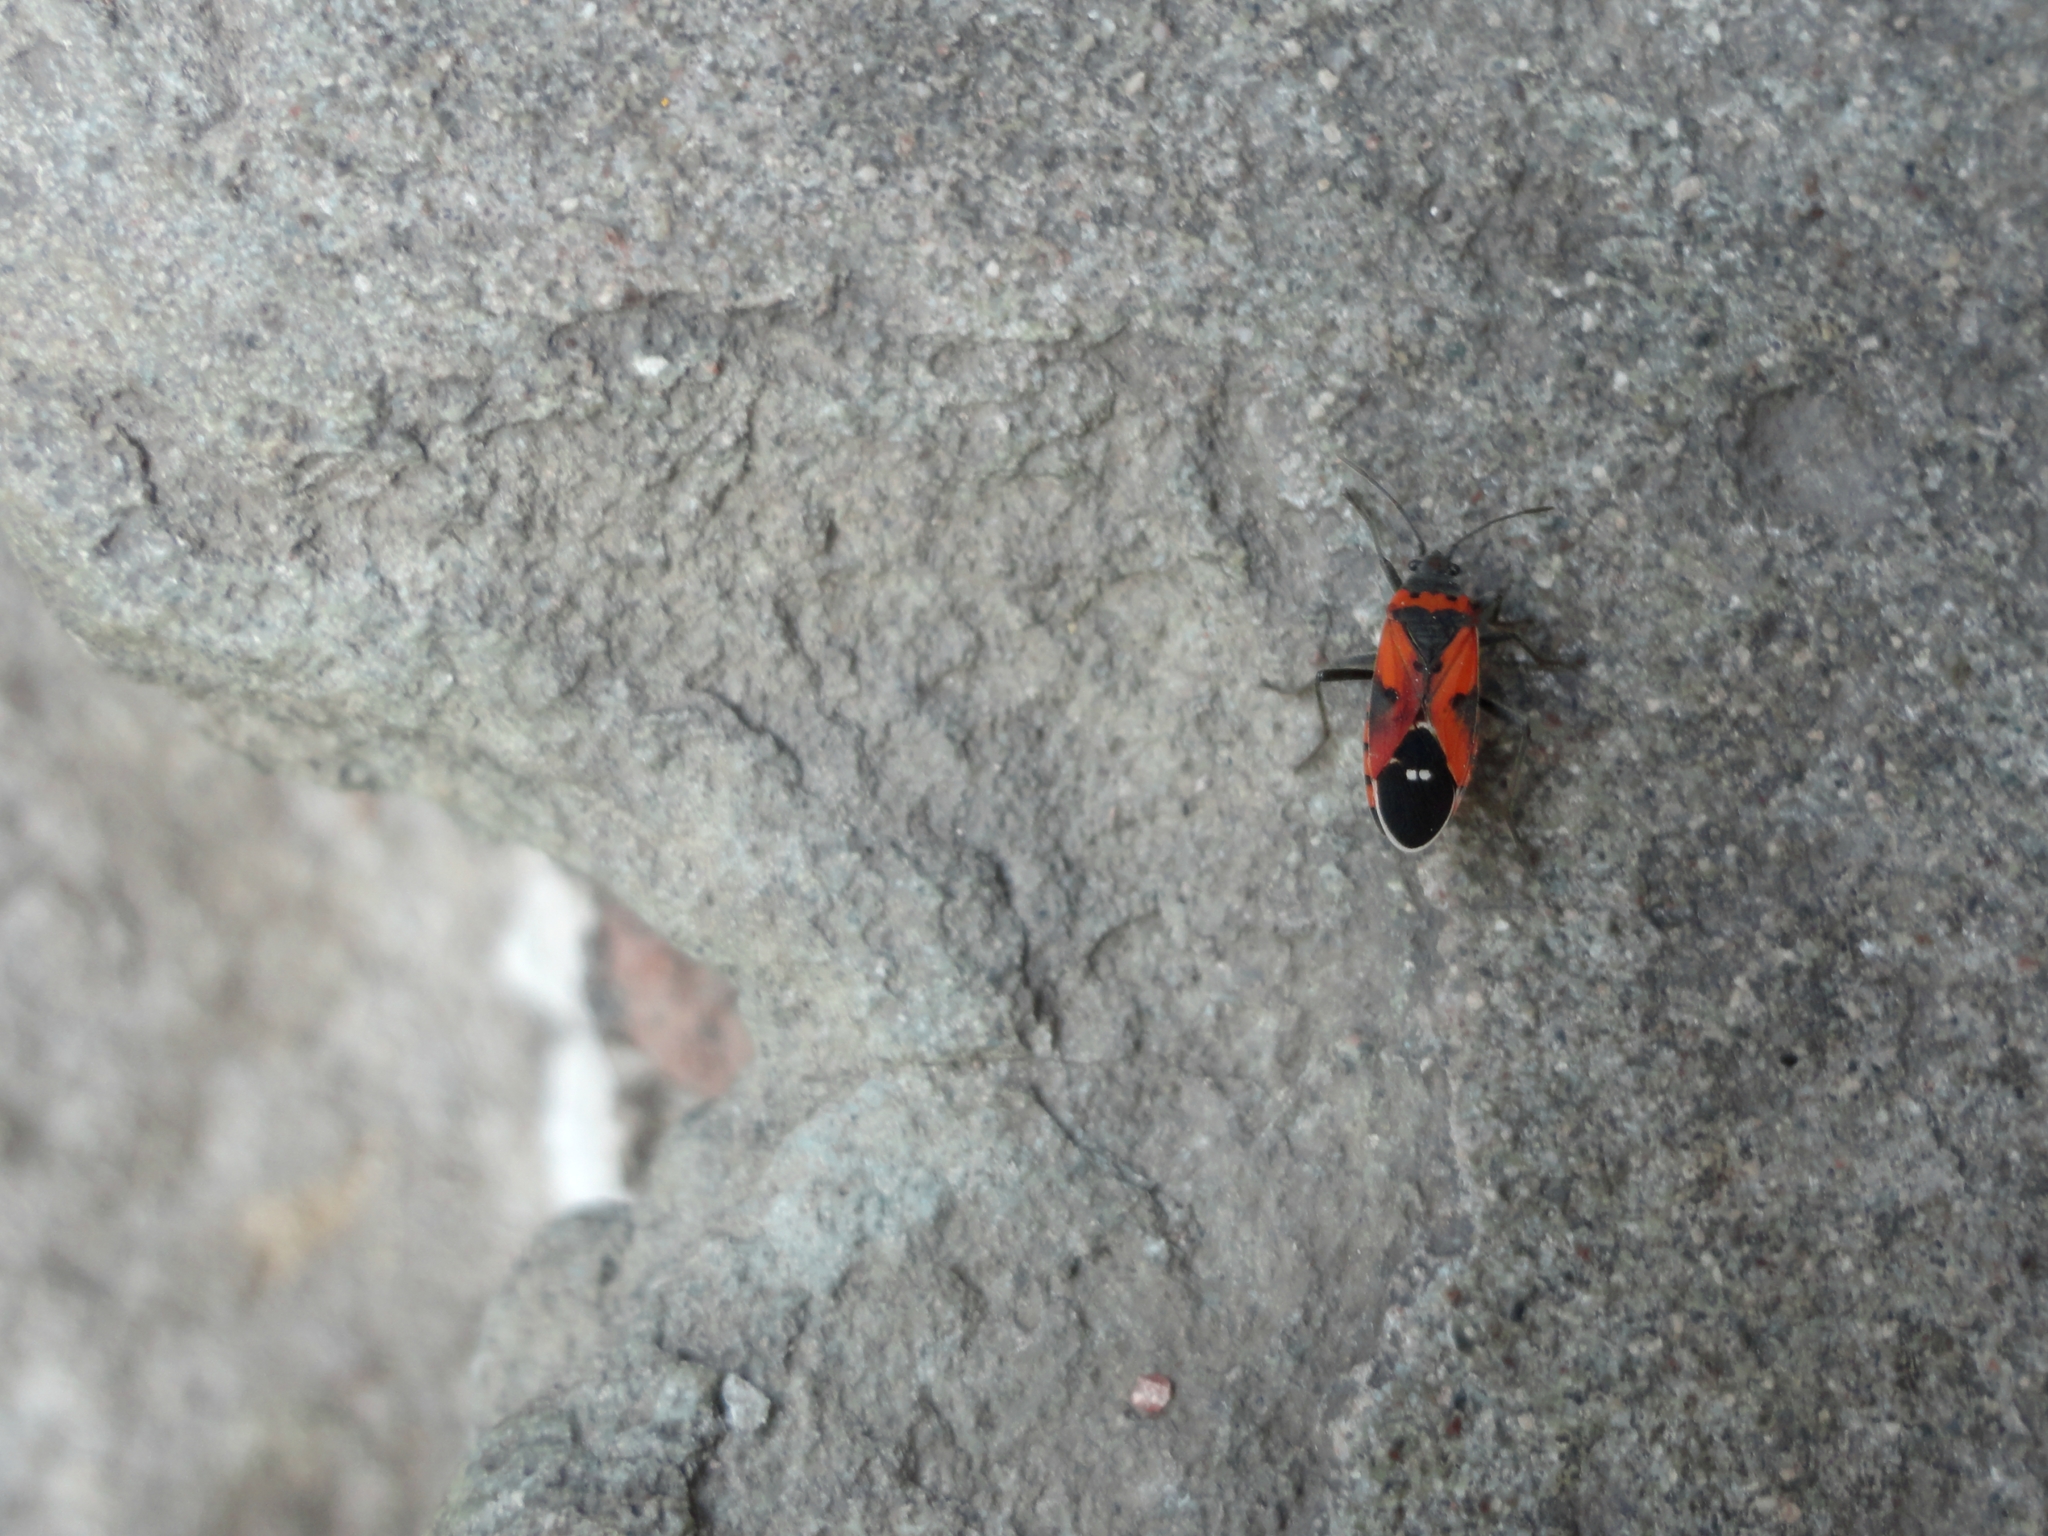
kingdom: Animalia
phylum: Arthropoda
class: Insecta
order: Hemiptera
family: Lygaeidae
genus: Lygaeus
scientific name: Lygaeus reclivatus
